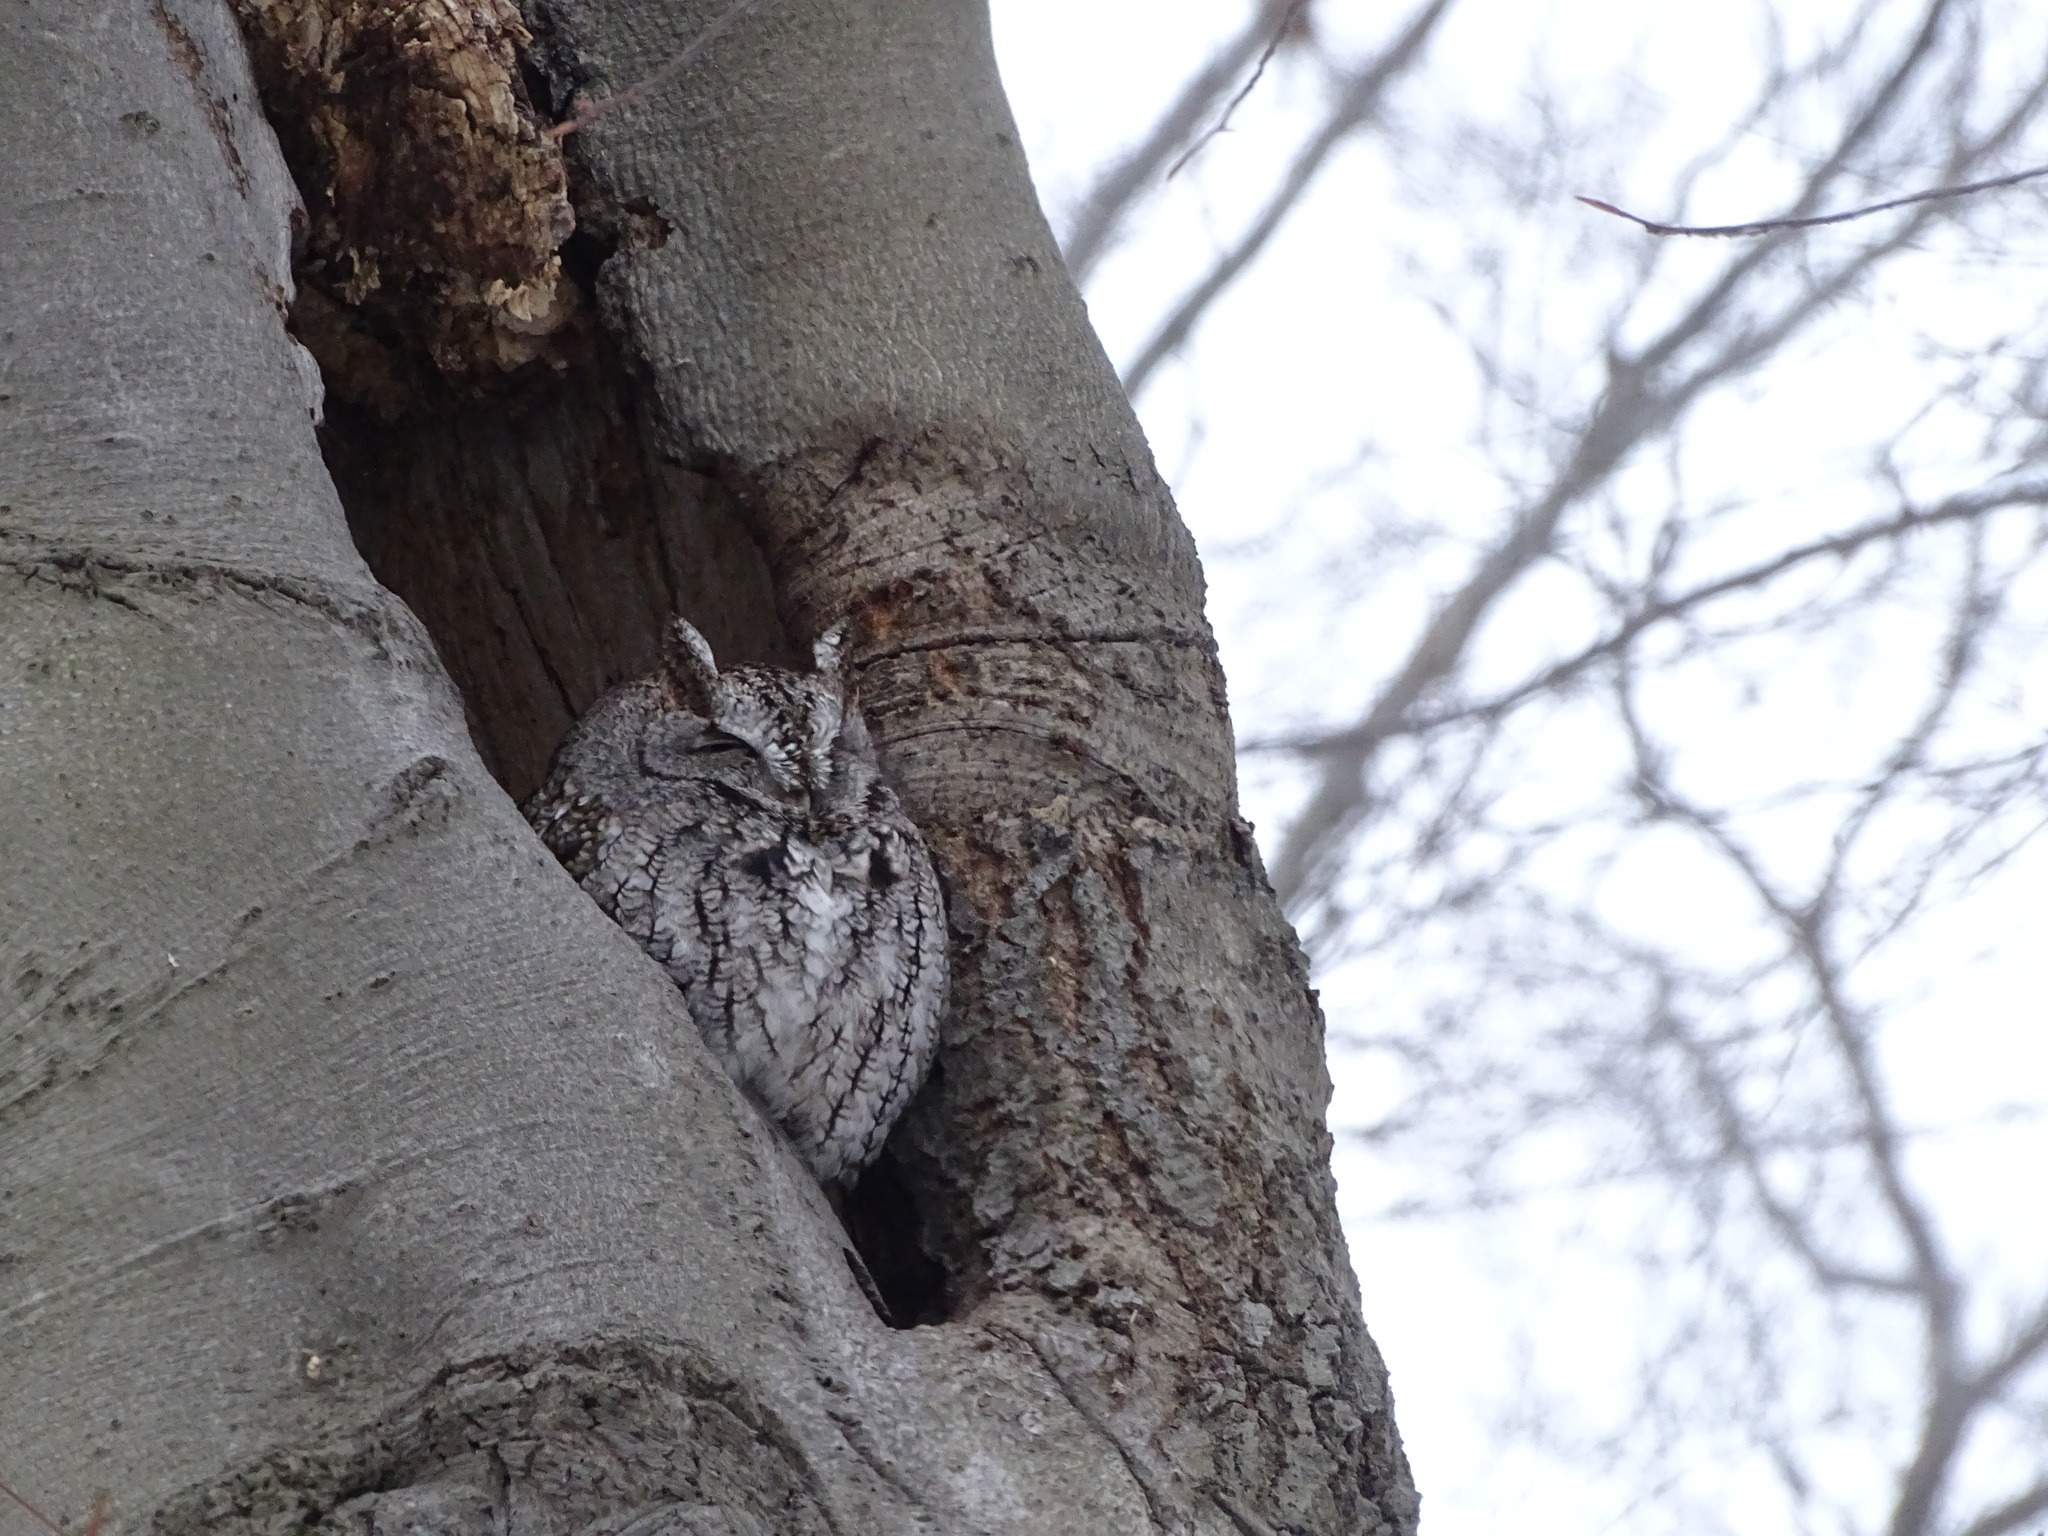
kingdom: Animalia
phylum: Chordata
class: Aves
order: Strigiformes
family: Strigidae
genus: Megascops
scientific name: Megascops asio
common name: Eastern screech-owl
